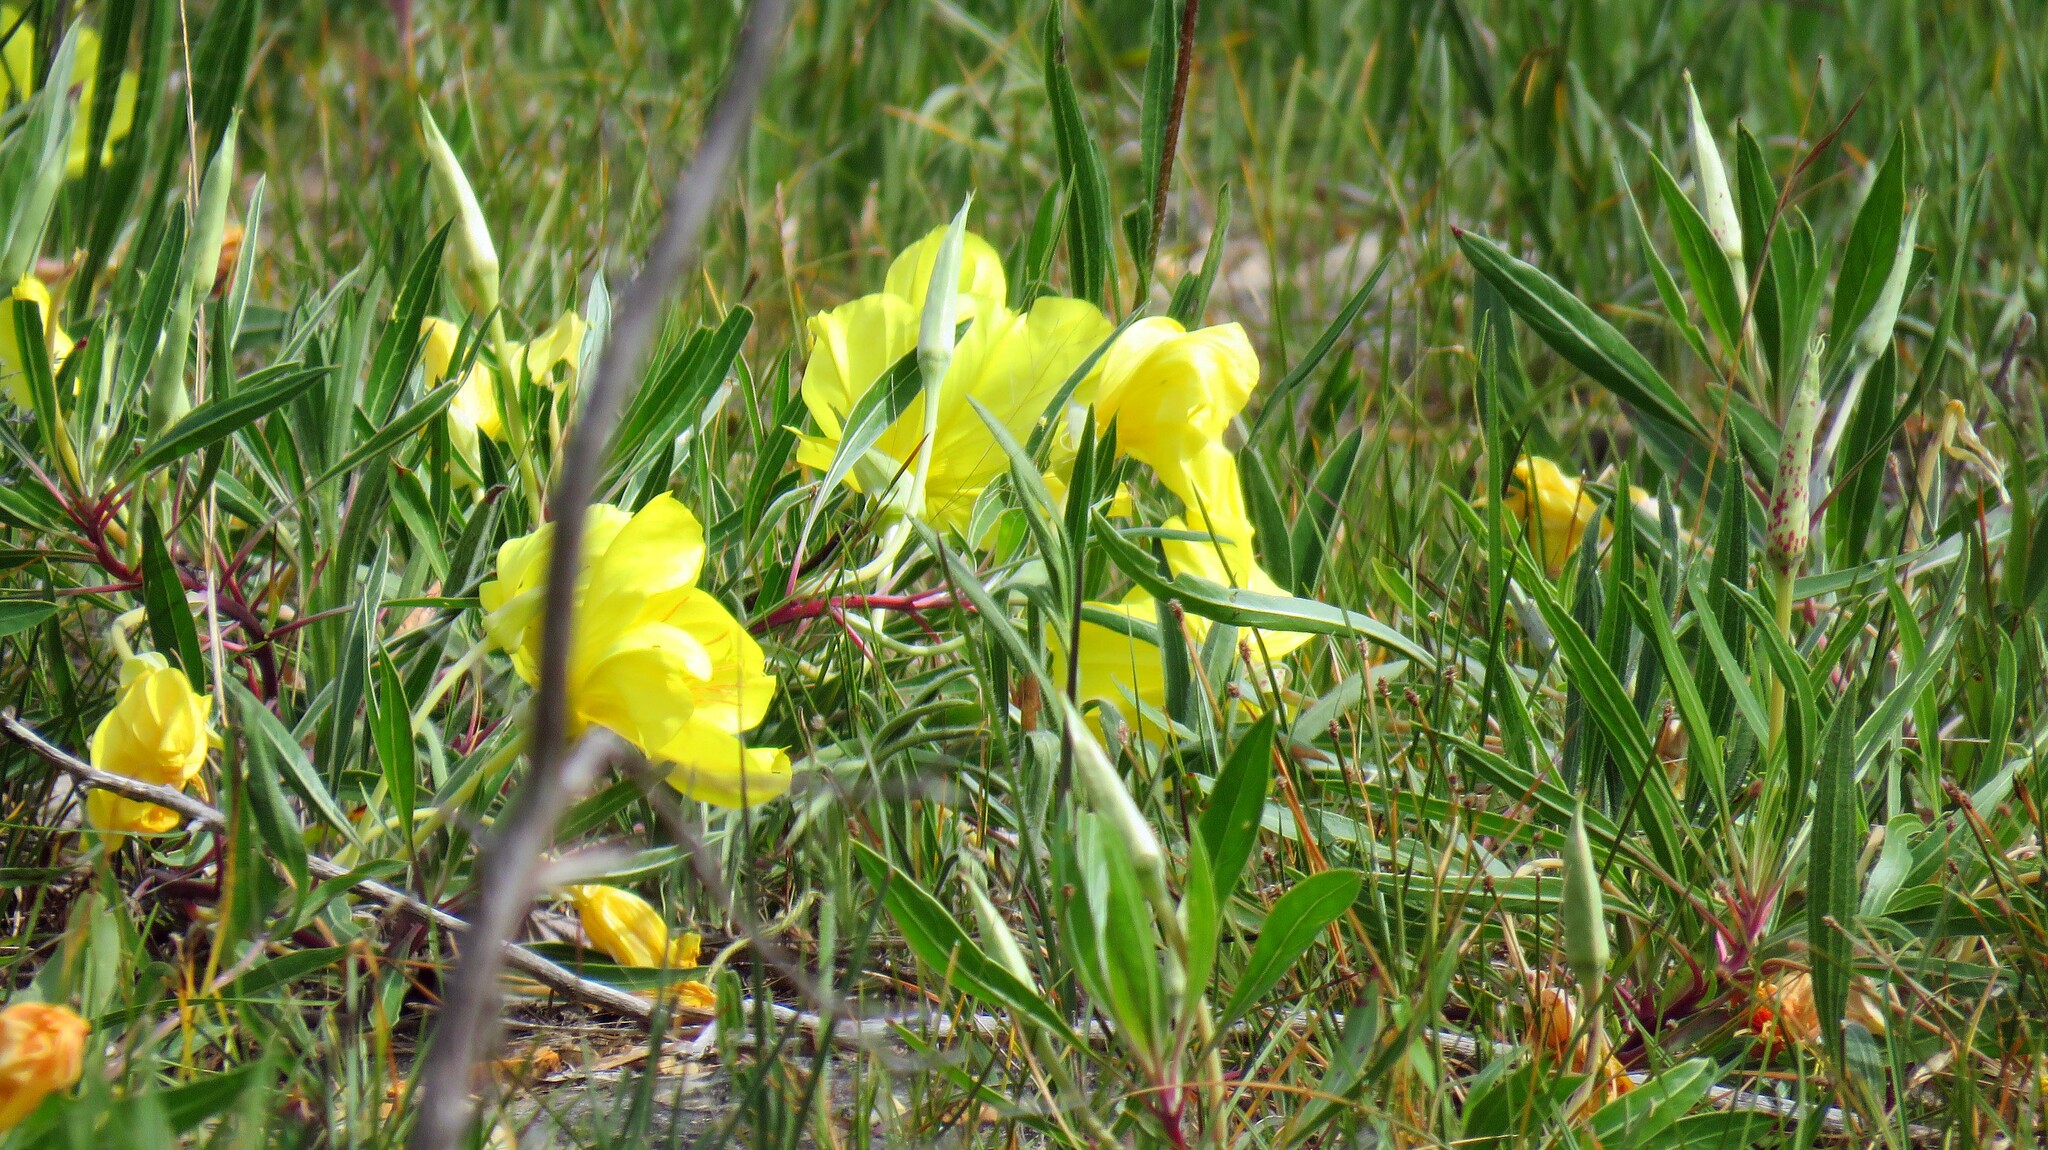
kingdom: Plantae
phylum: Tracheophyta
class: Magnoliopsida
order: Myrtales
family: Onagraceae
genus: Oenothera
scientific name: Oenothera macrocarpa
